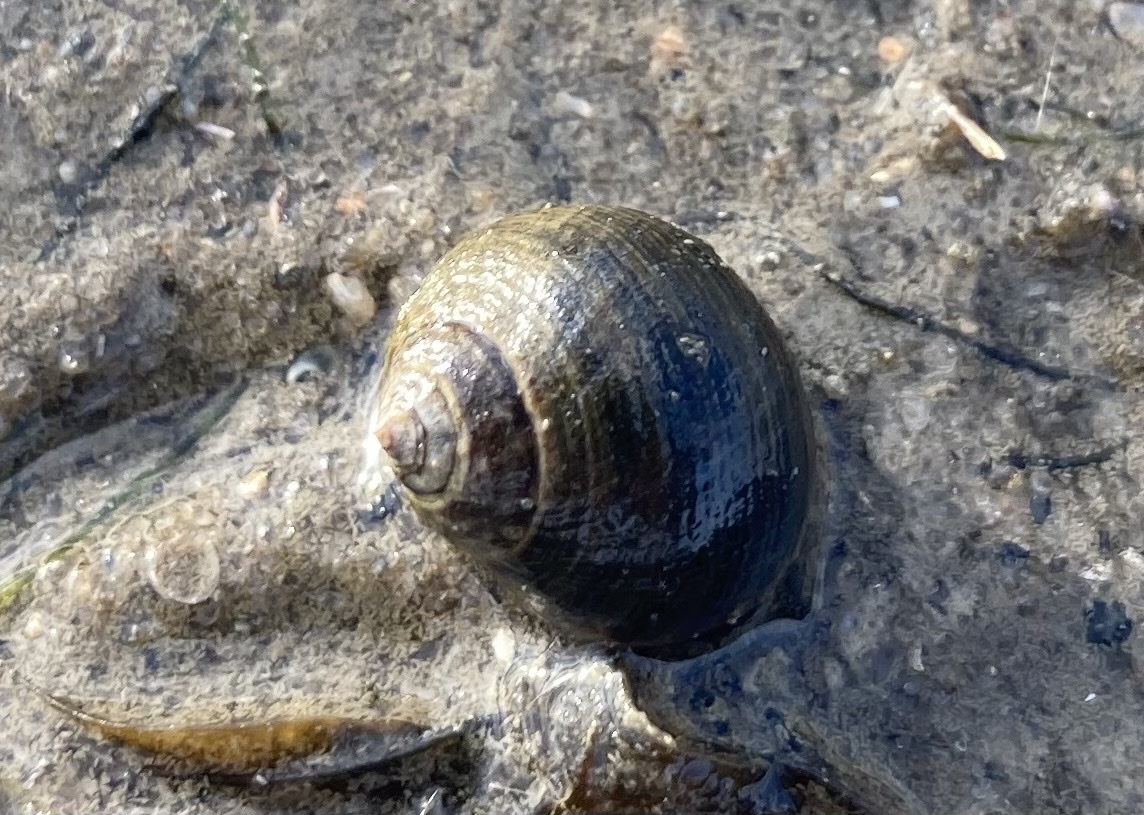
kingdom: Animalia
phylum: Mollusca
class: Gastropoda
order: Littorinimorpha
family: Littorinidae
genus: Littorina
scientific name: Littorina littorea
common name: Common periwinkle
